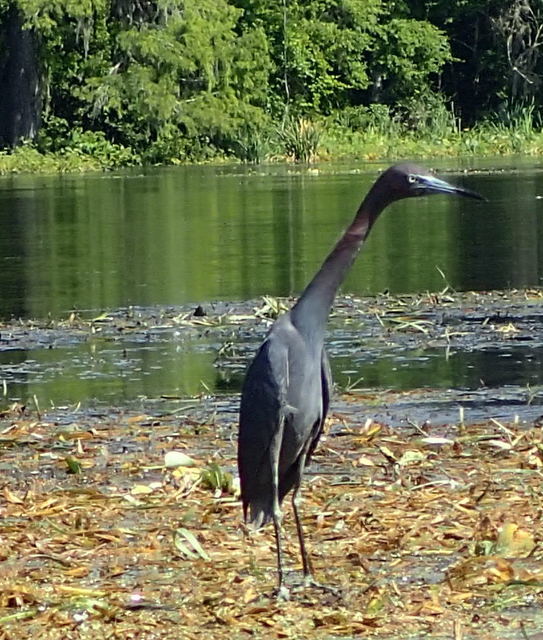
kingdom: Animalia
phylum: Chordata
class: Aves
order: Pelecaniformes
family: Ardeidae
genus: Egretta
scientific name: Egretta caerulea
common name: Little blue heron
